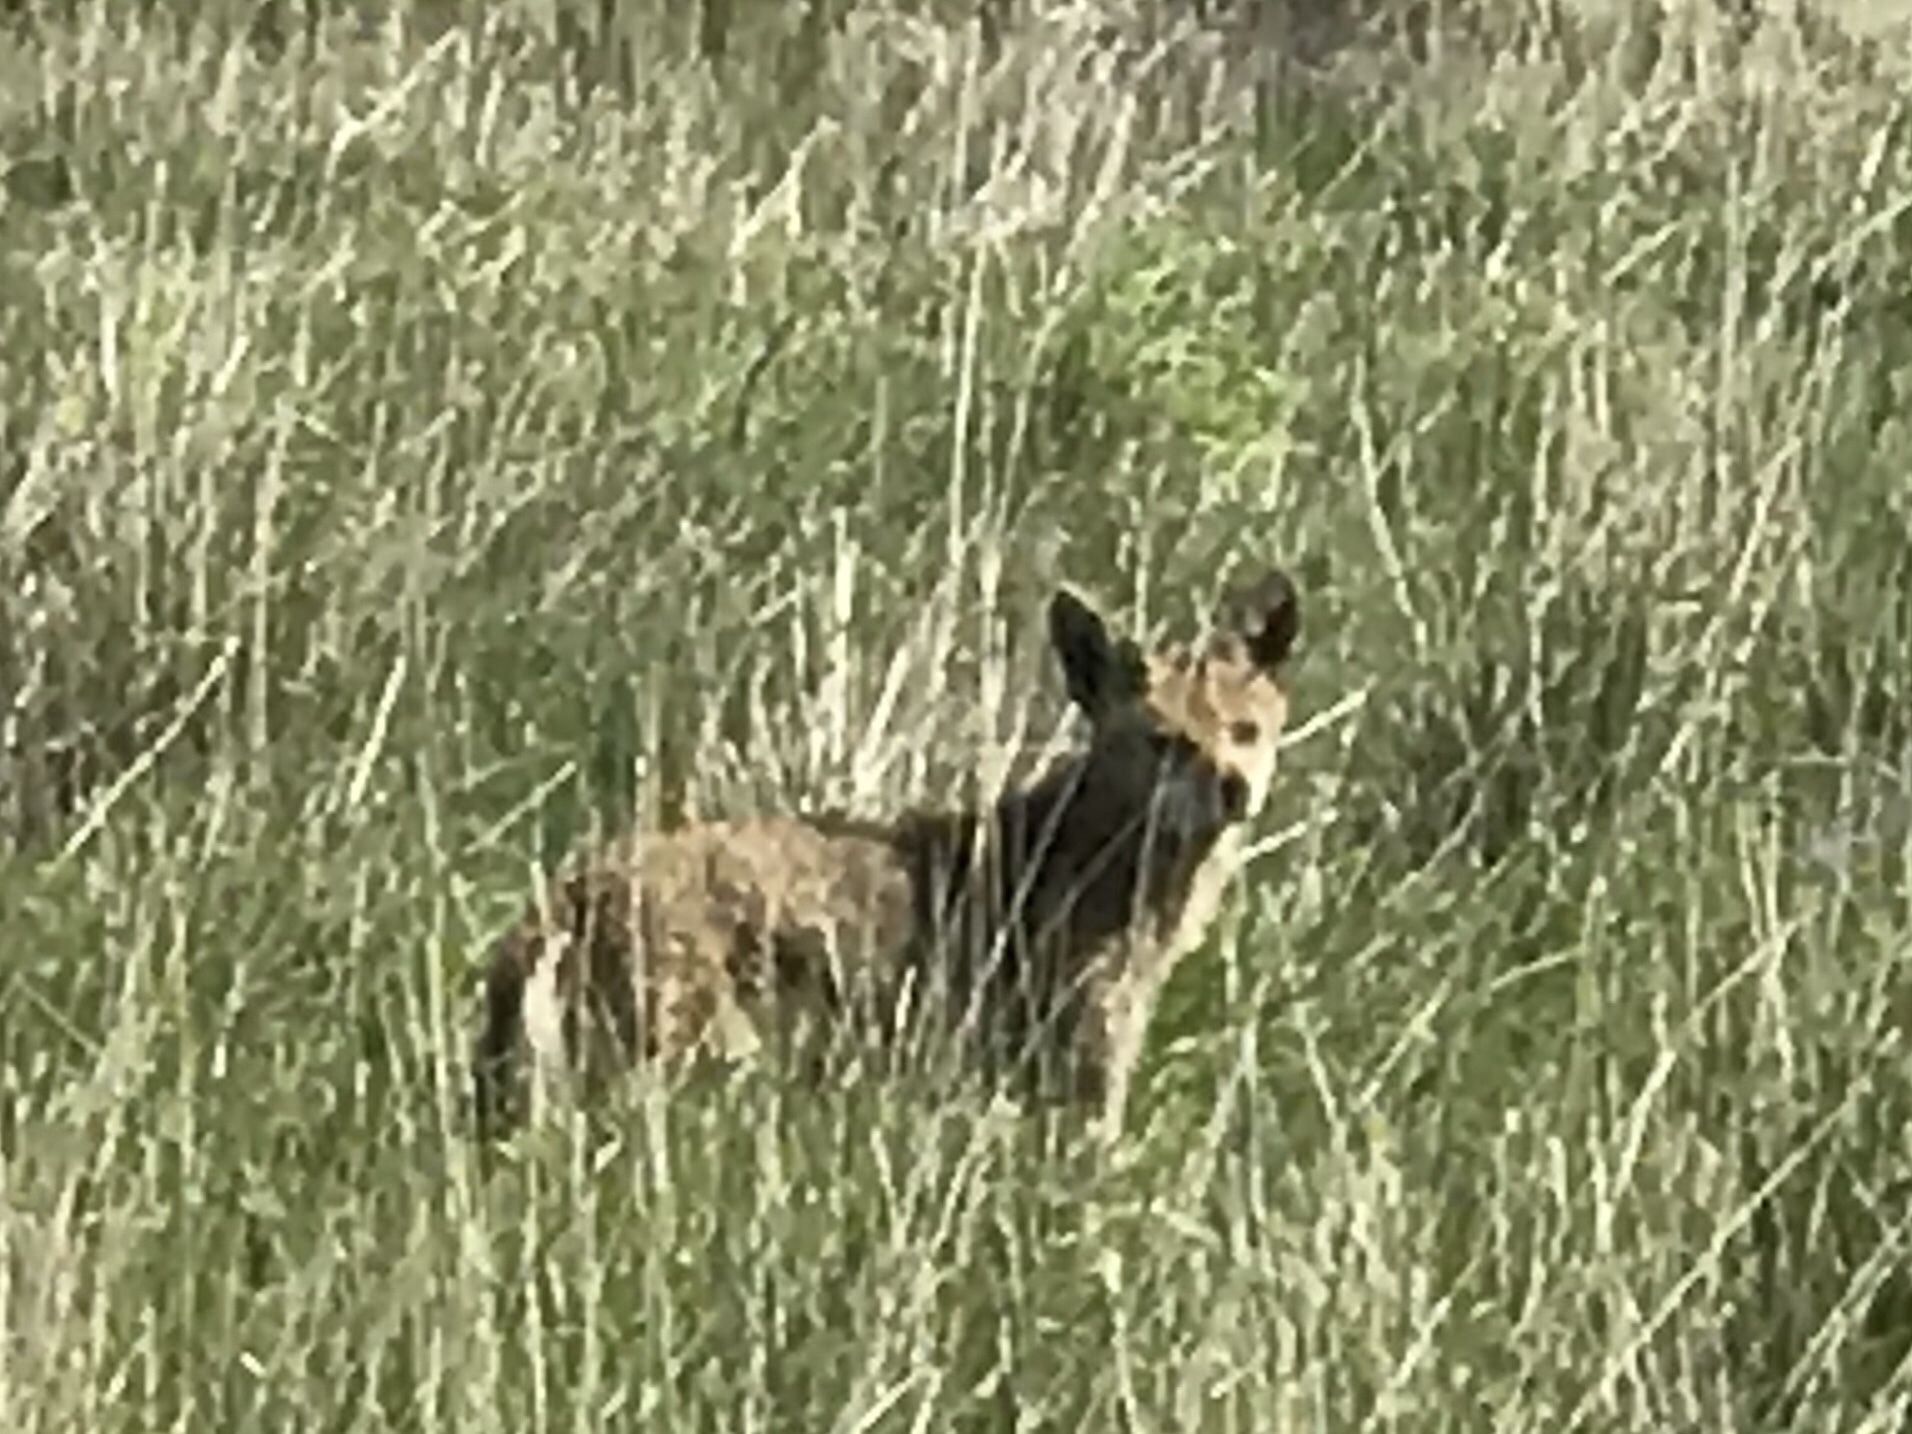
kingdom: Animalia
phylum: Chordata
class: Mammalia
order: Carnivora
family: Canidae
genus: Canis
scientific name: Canis latrans
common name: Coyote
